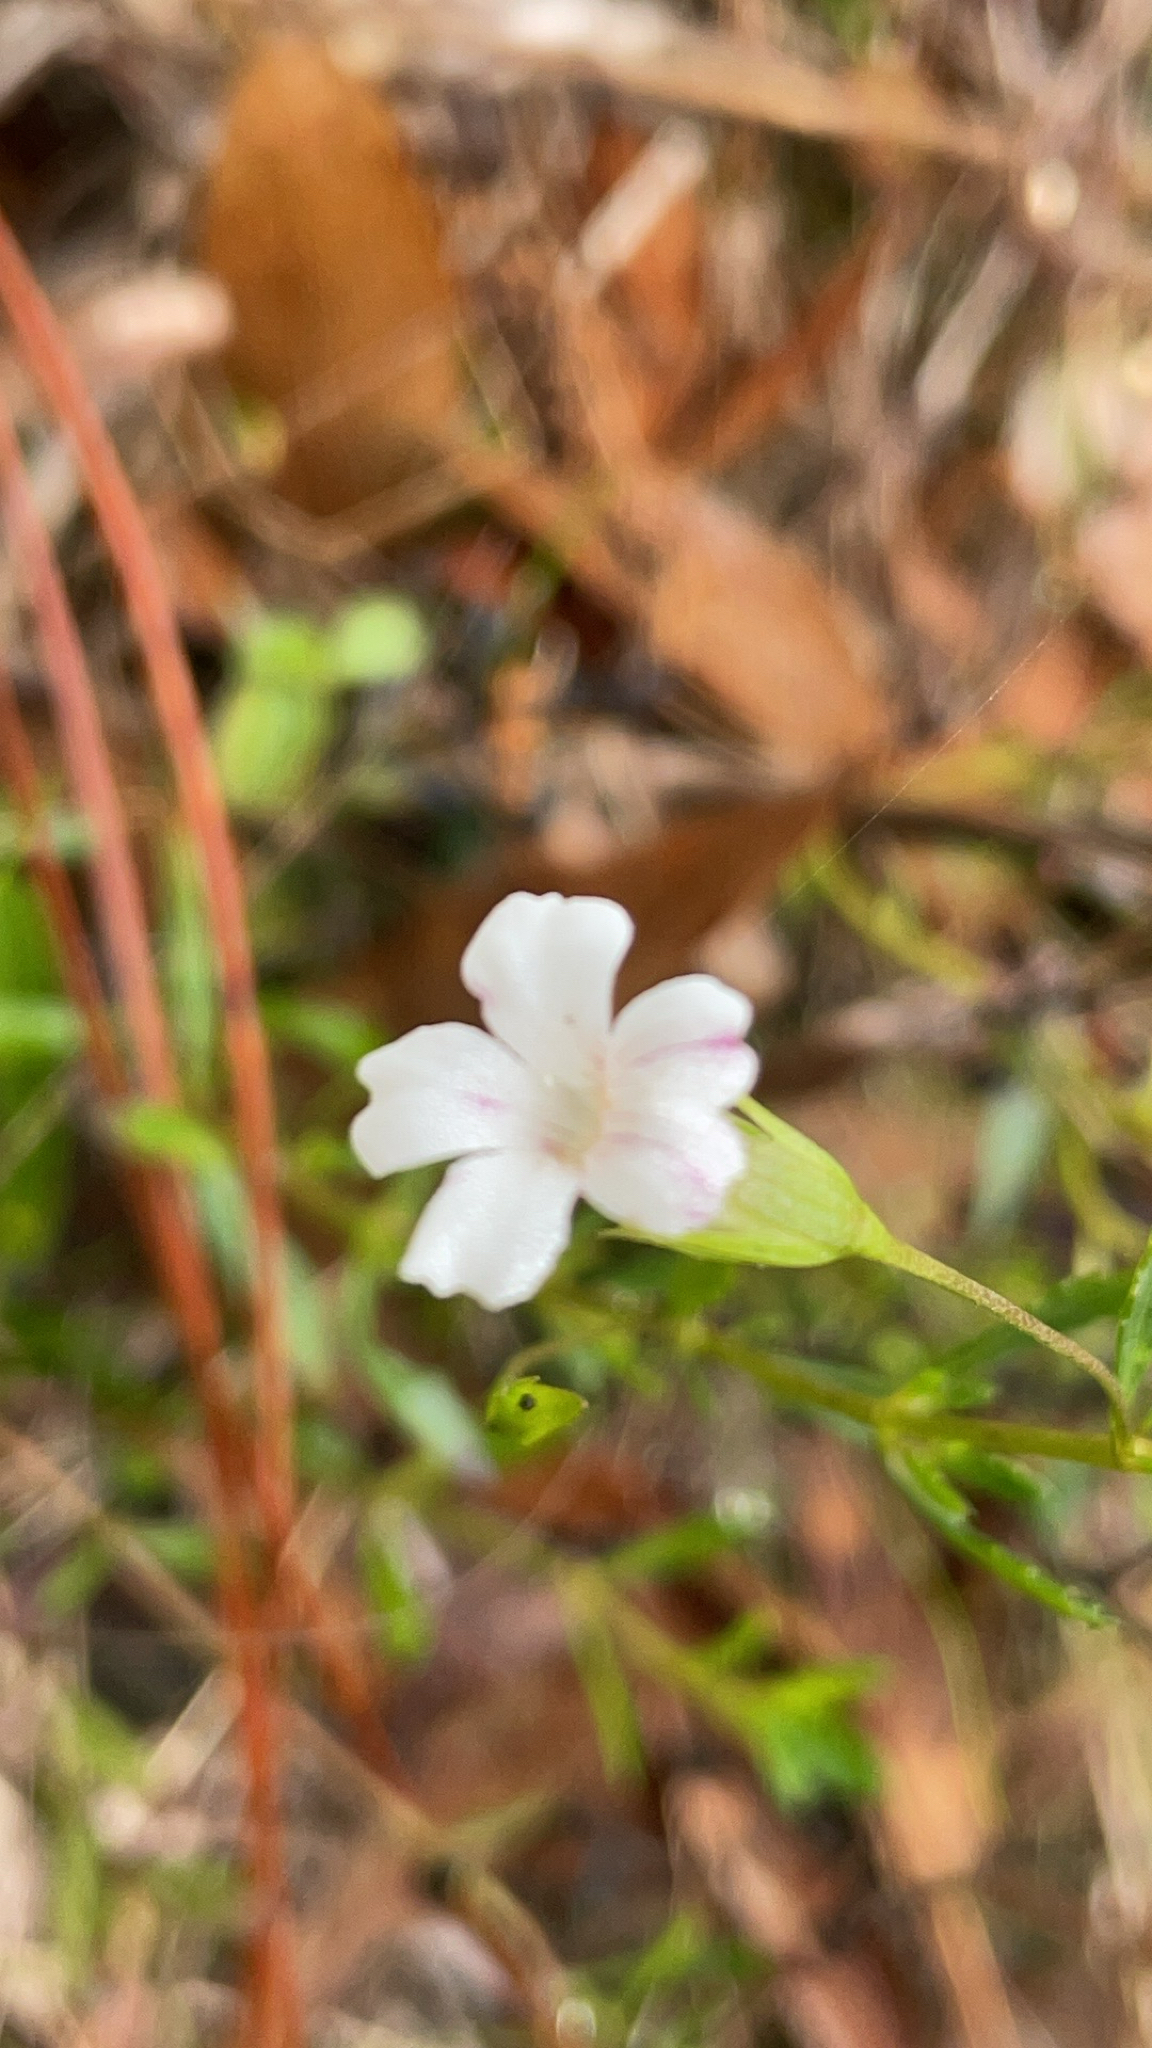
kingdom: Plantae
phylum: Tracheophyta
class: Magnoliopsida
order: Lamiales
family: Plantaginaceae
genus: Mecardonia
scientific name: Mecardonia acuminata
